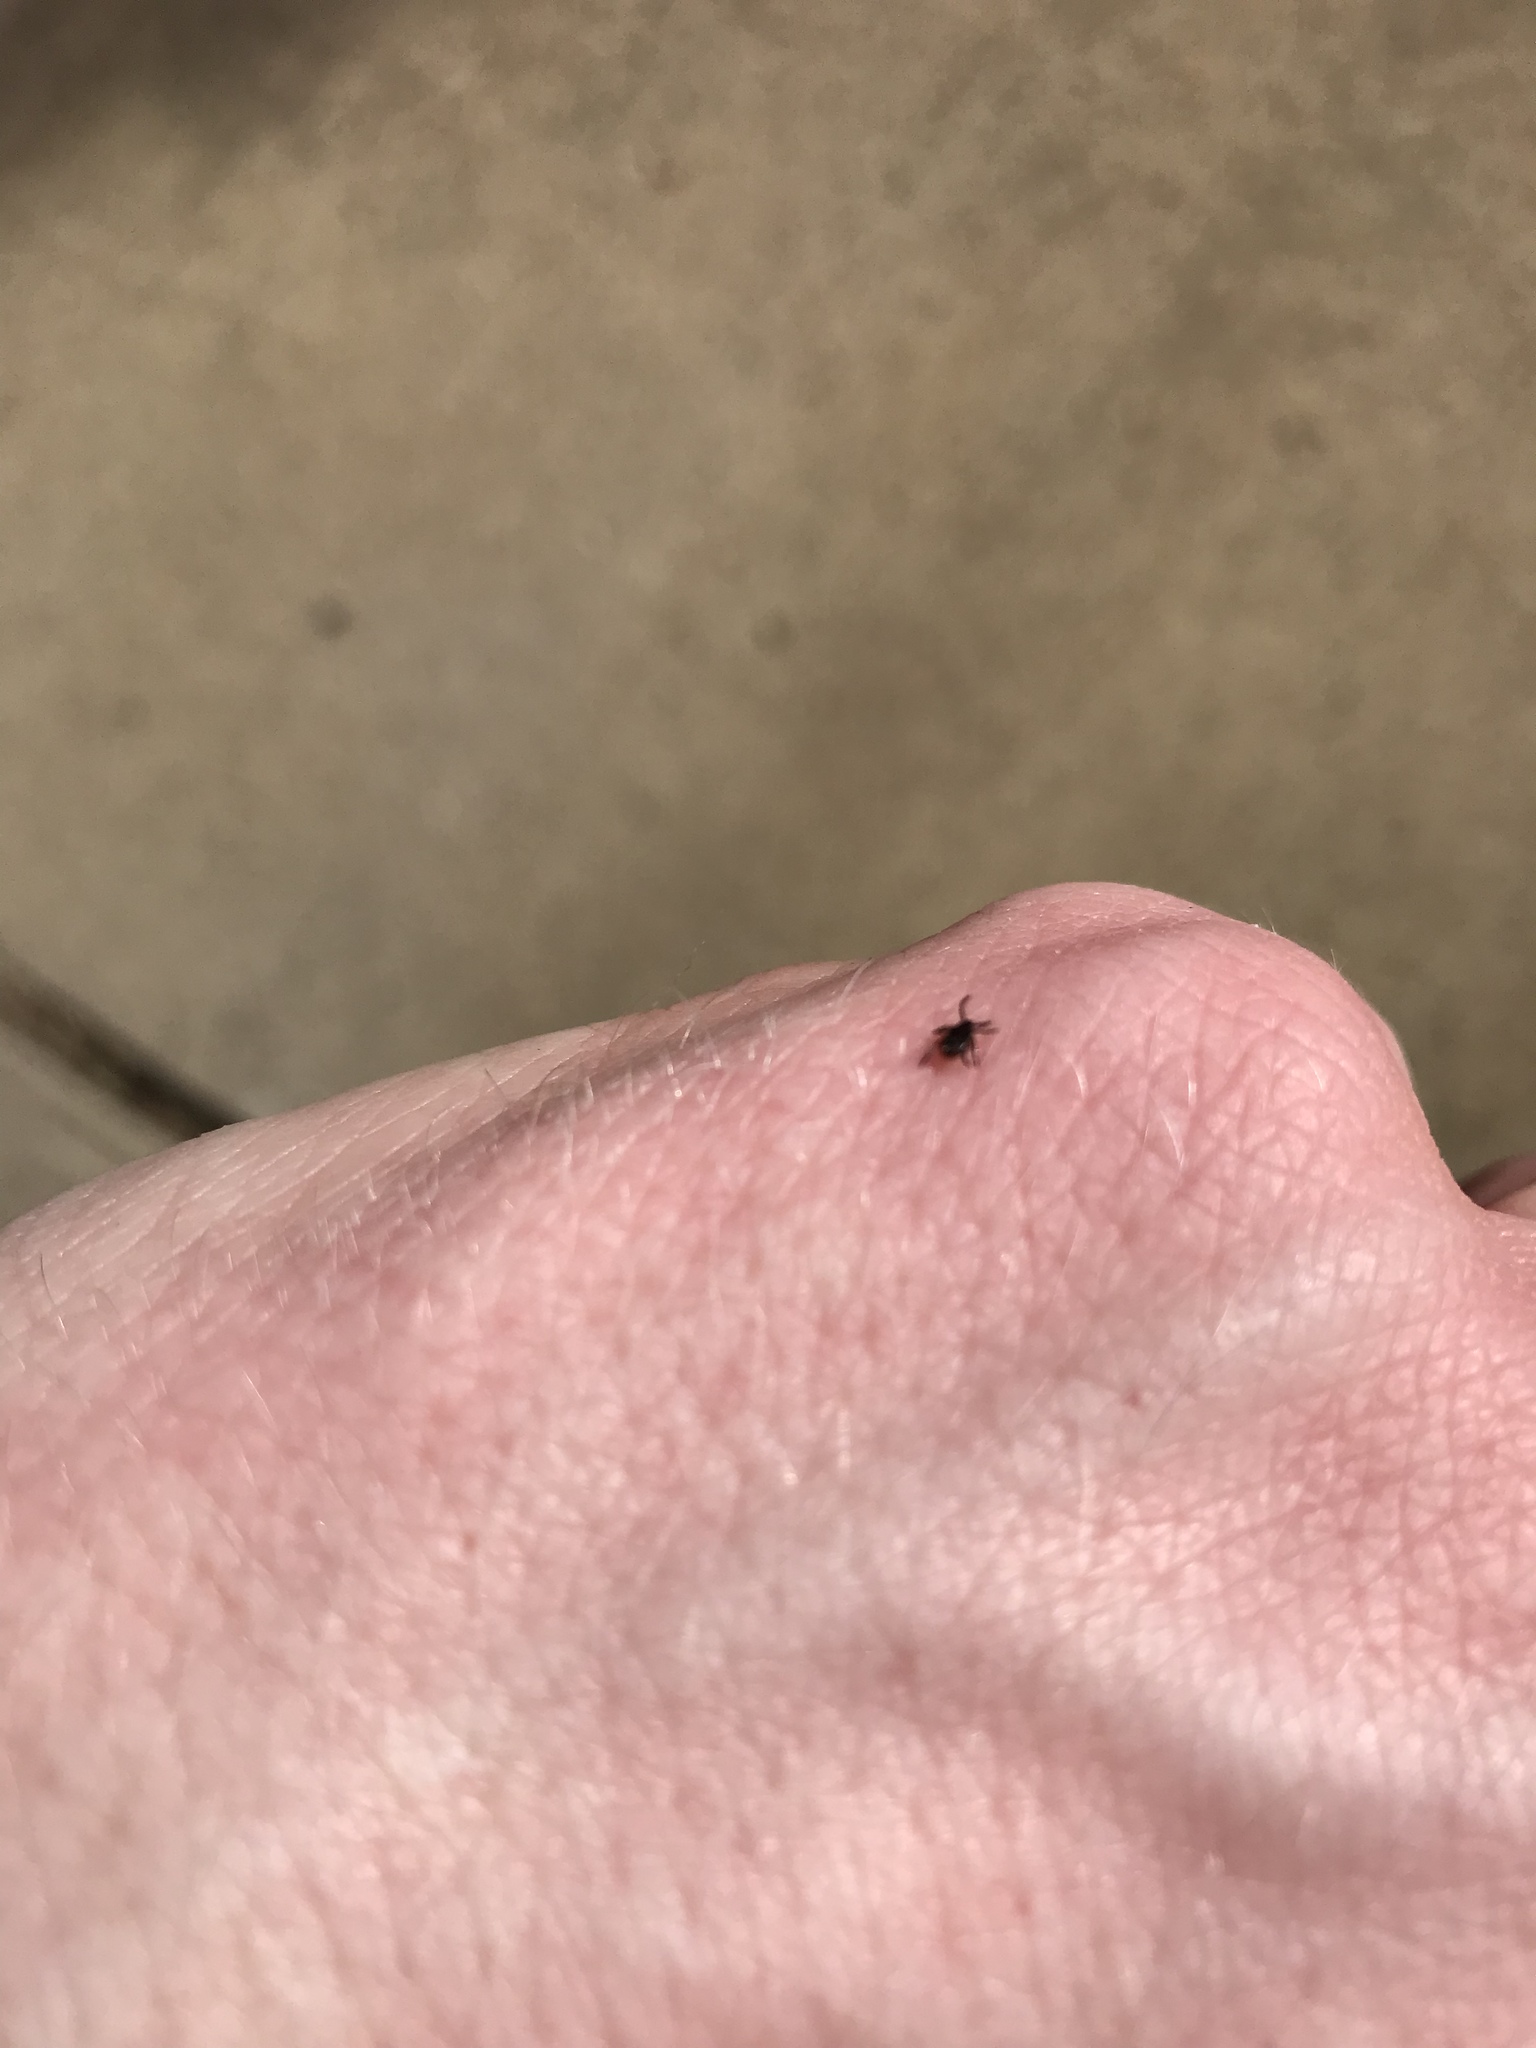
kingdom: Animalia
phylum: Arthropoda
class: Arachnida
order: Ixodida
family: Ixodidae
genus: Ixodes
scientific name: Ixodes scapularis
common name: Black legged tick
